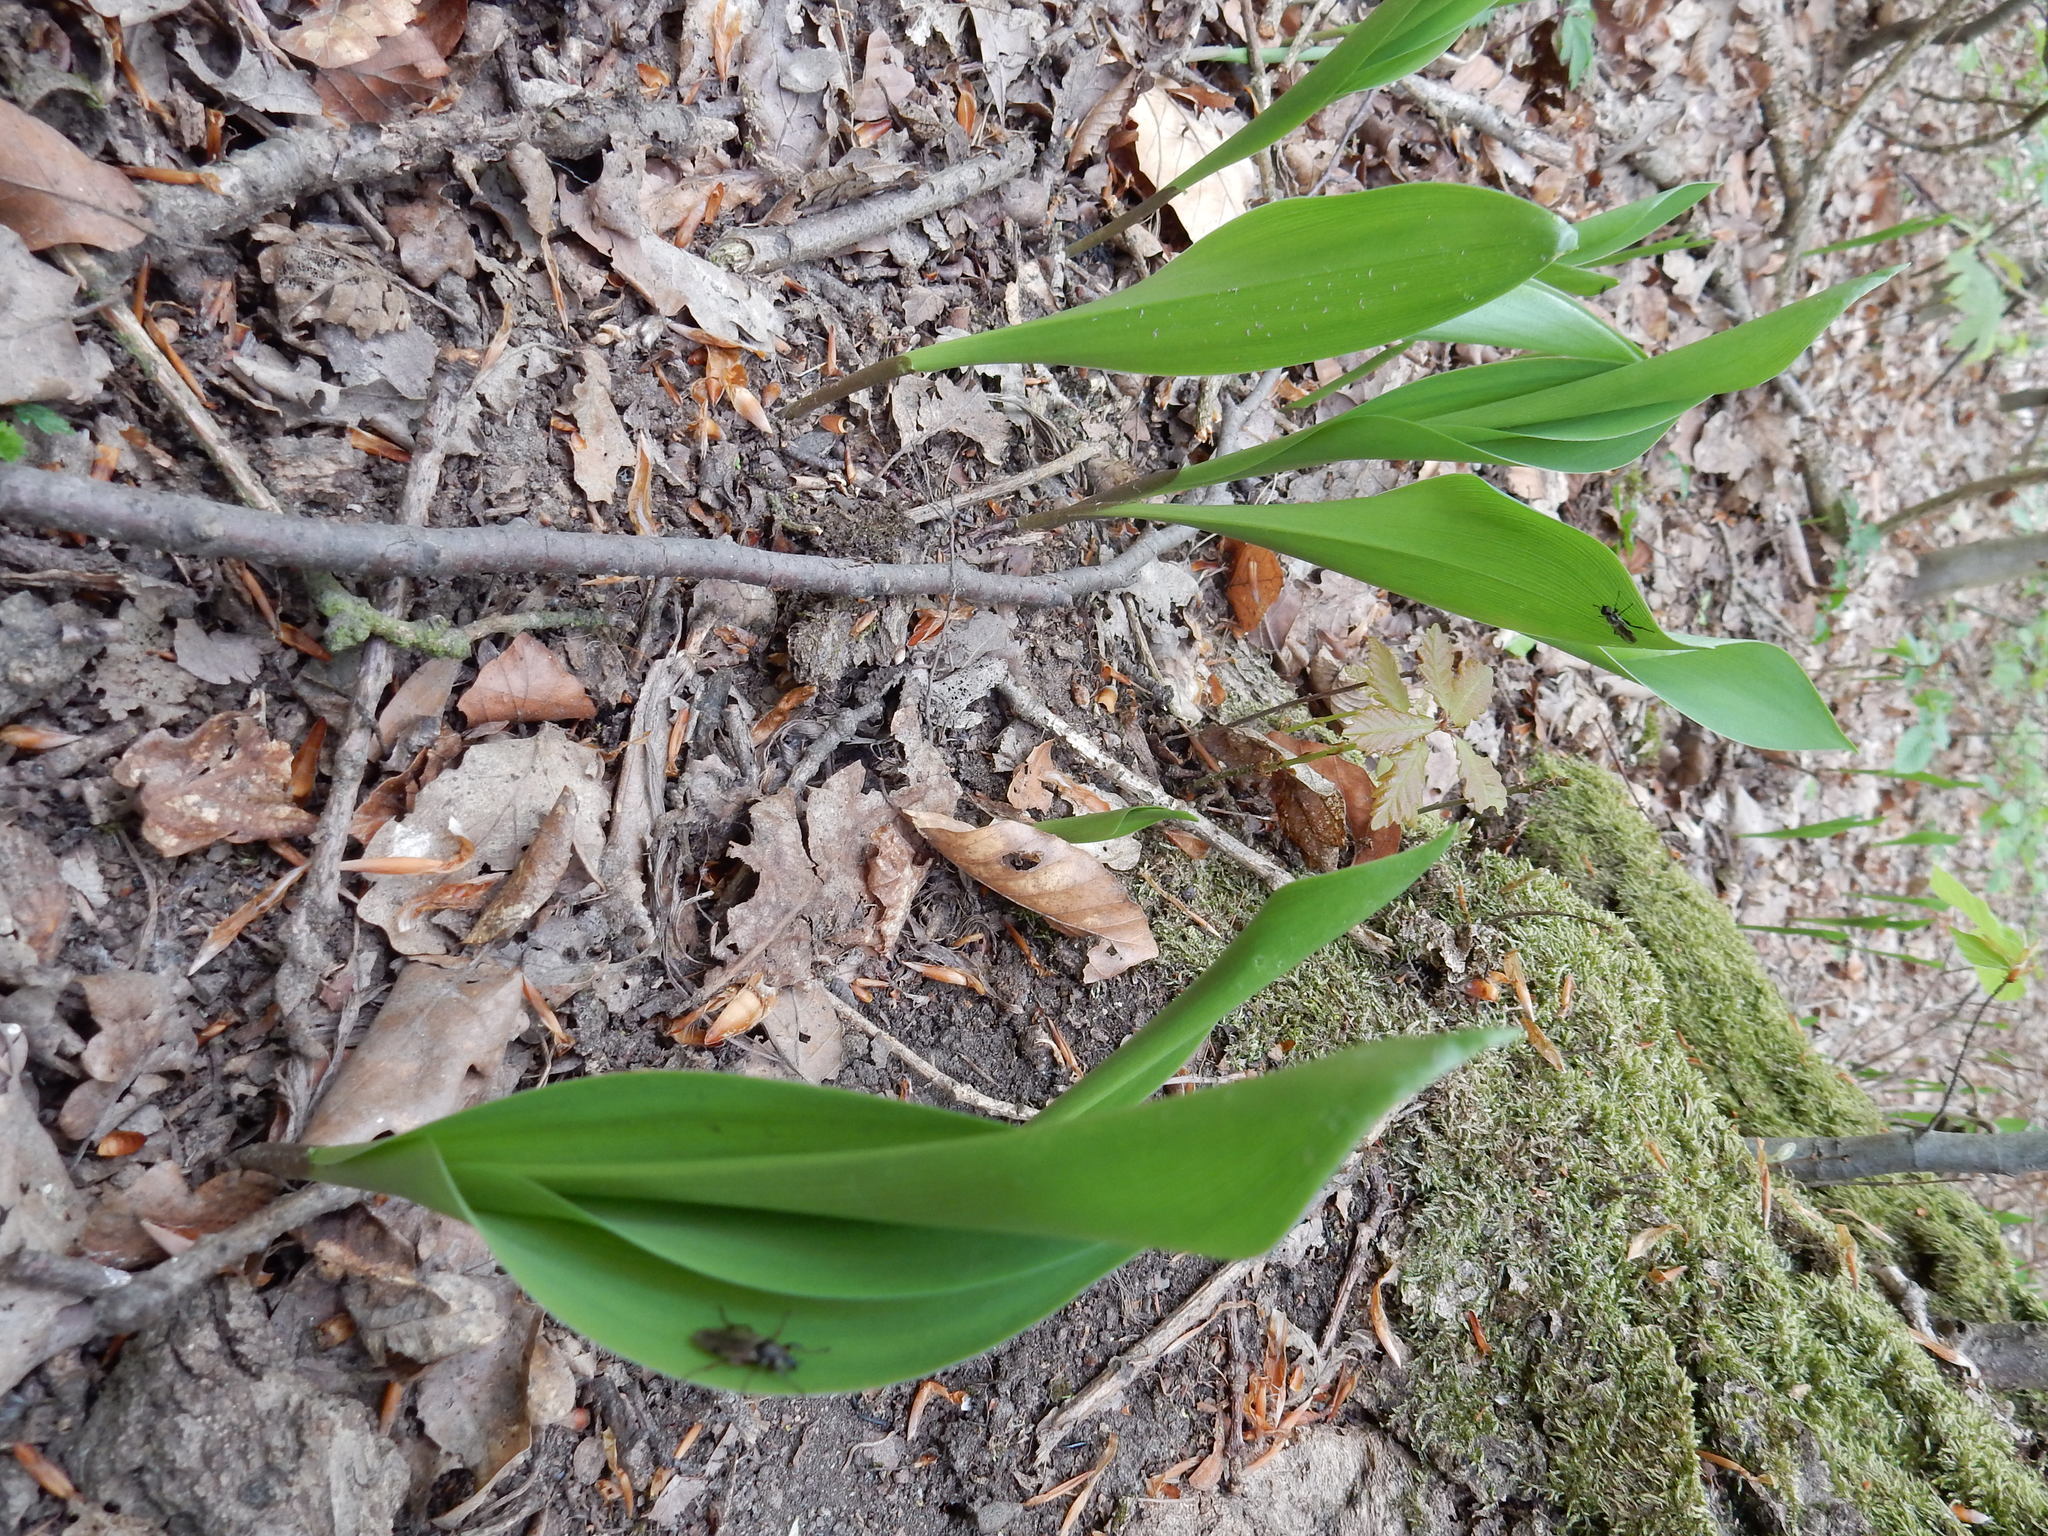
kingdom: Plantae
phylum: Tracheophyta
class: Liliopsida
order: Asparagales
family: Asparagaceae
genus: Convallaria
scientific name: Convallaria majalis
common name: Lily-of-the-valley
